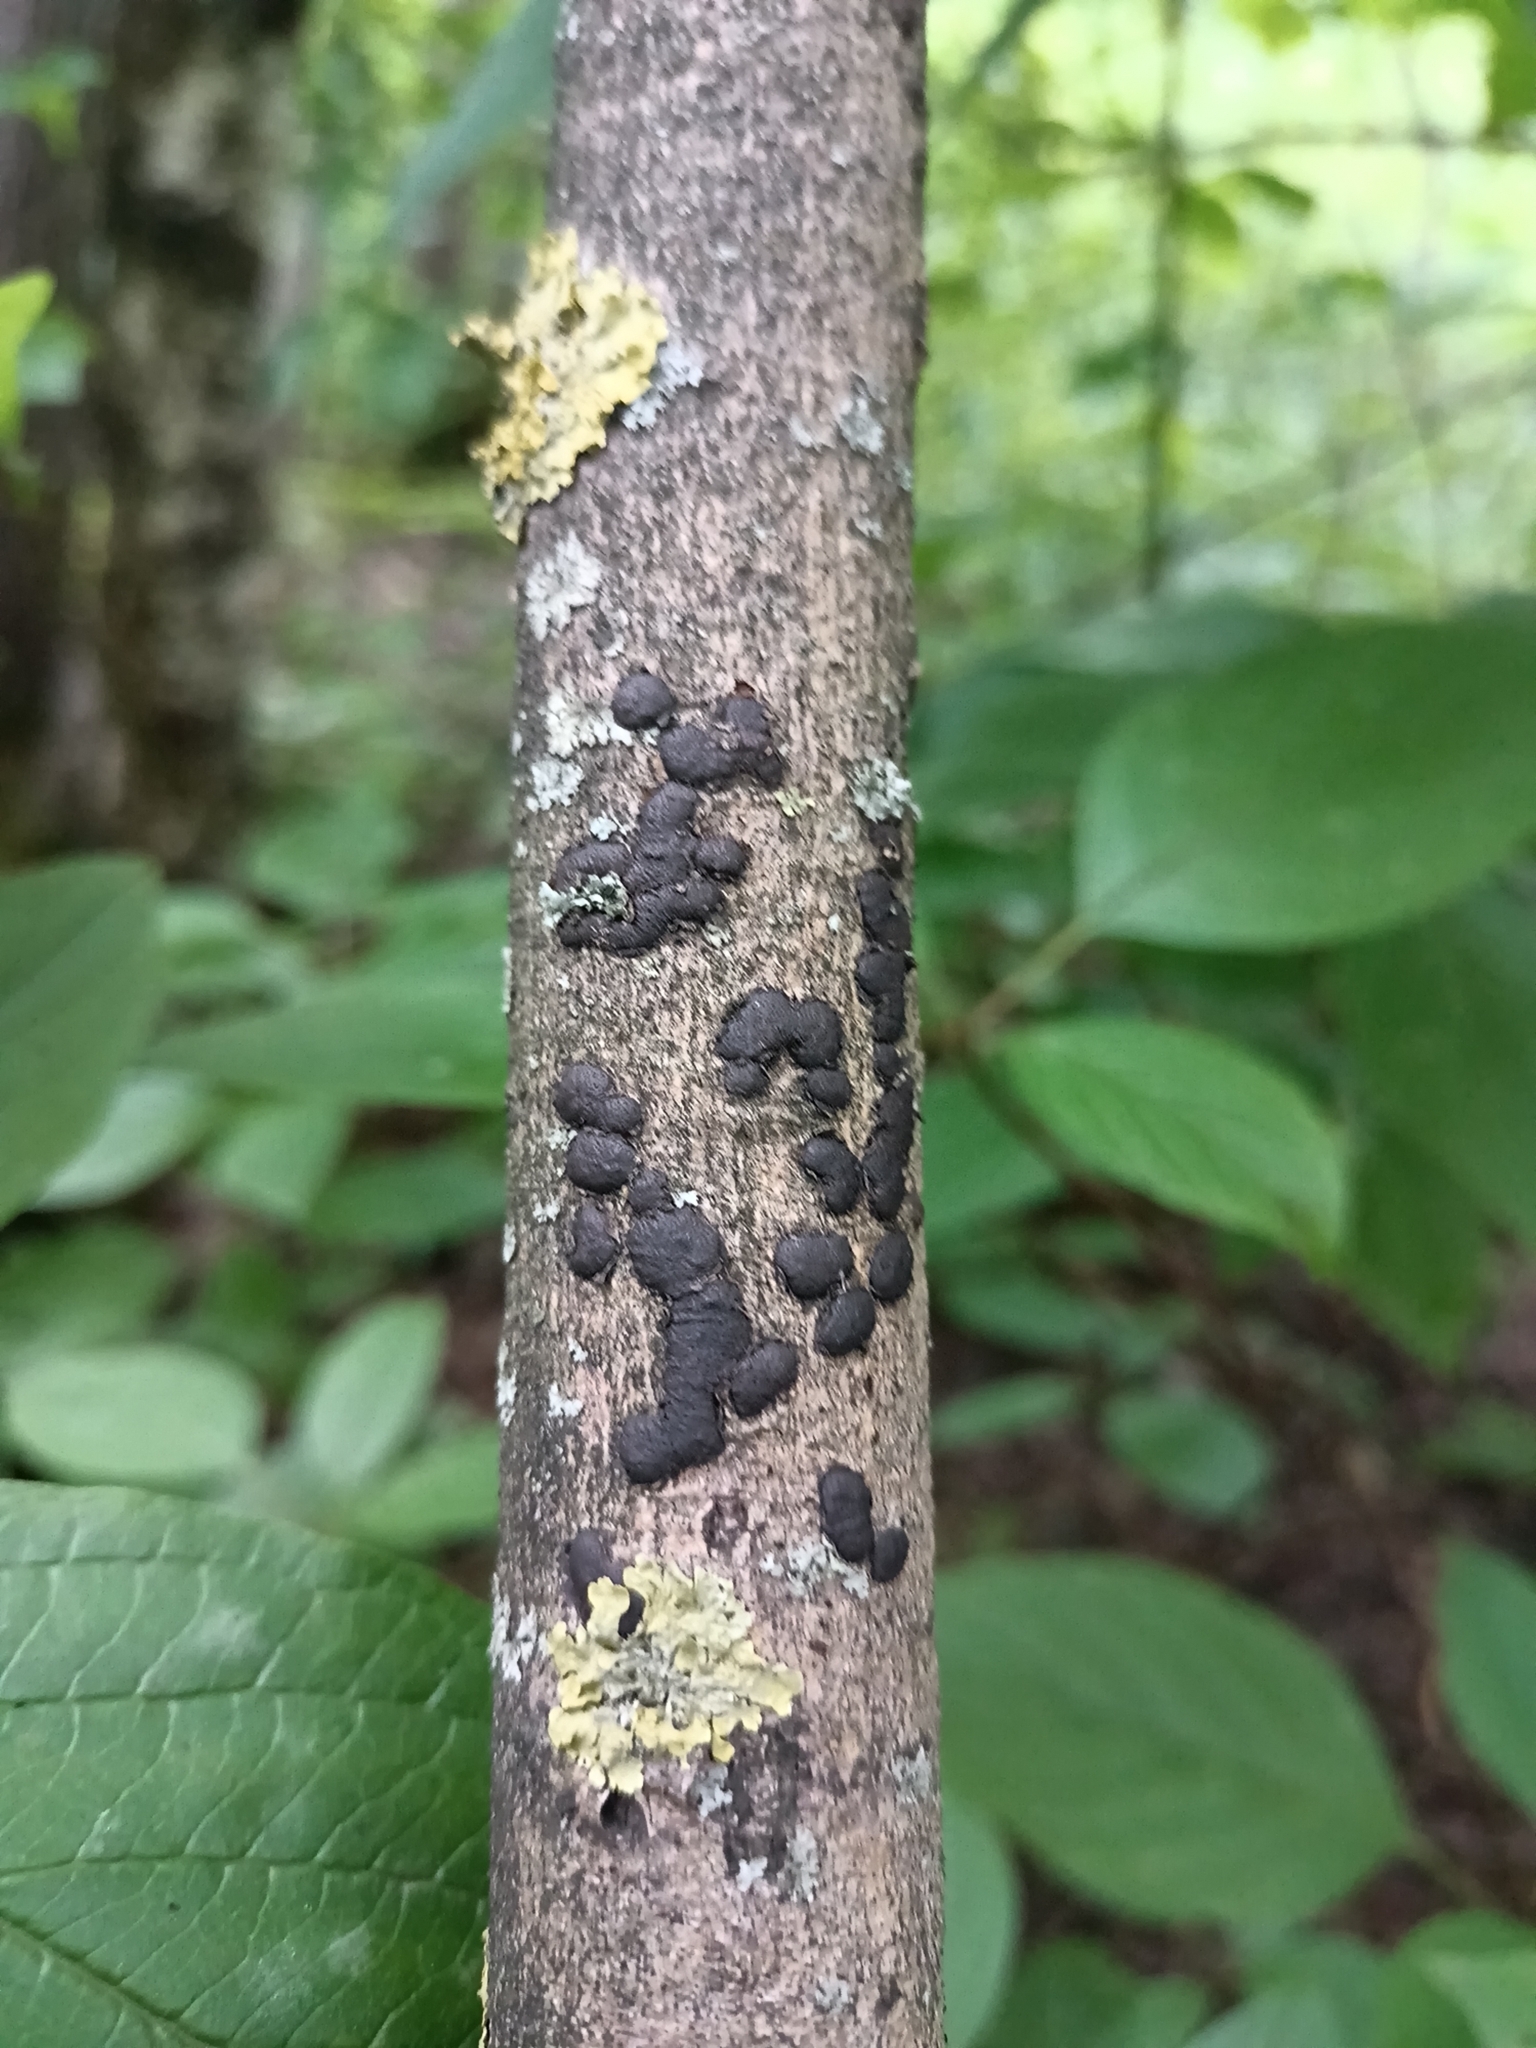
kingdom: Fungi
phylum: Ascomycota
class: Sordariomycetes
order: Xylariales
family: Diatrypaceae
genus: Diatrype
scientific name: Diatrype bullata
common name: Willow barkspot
